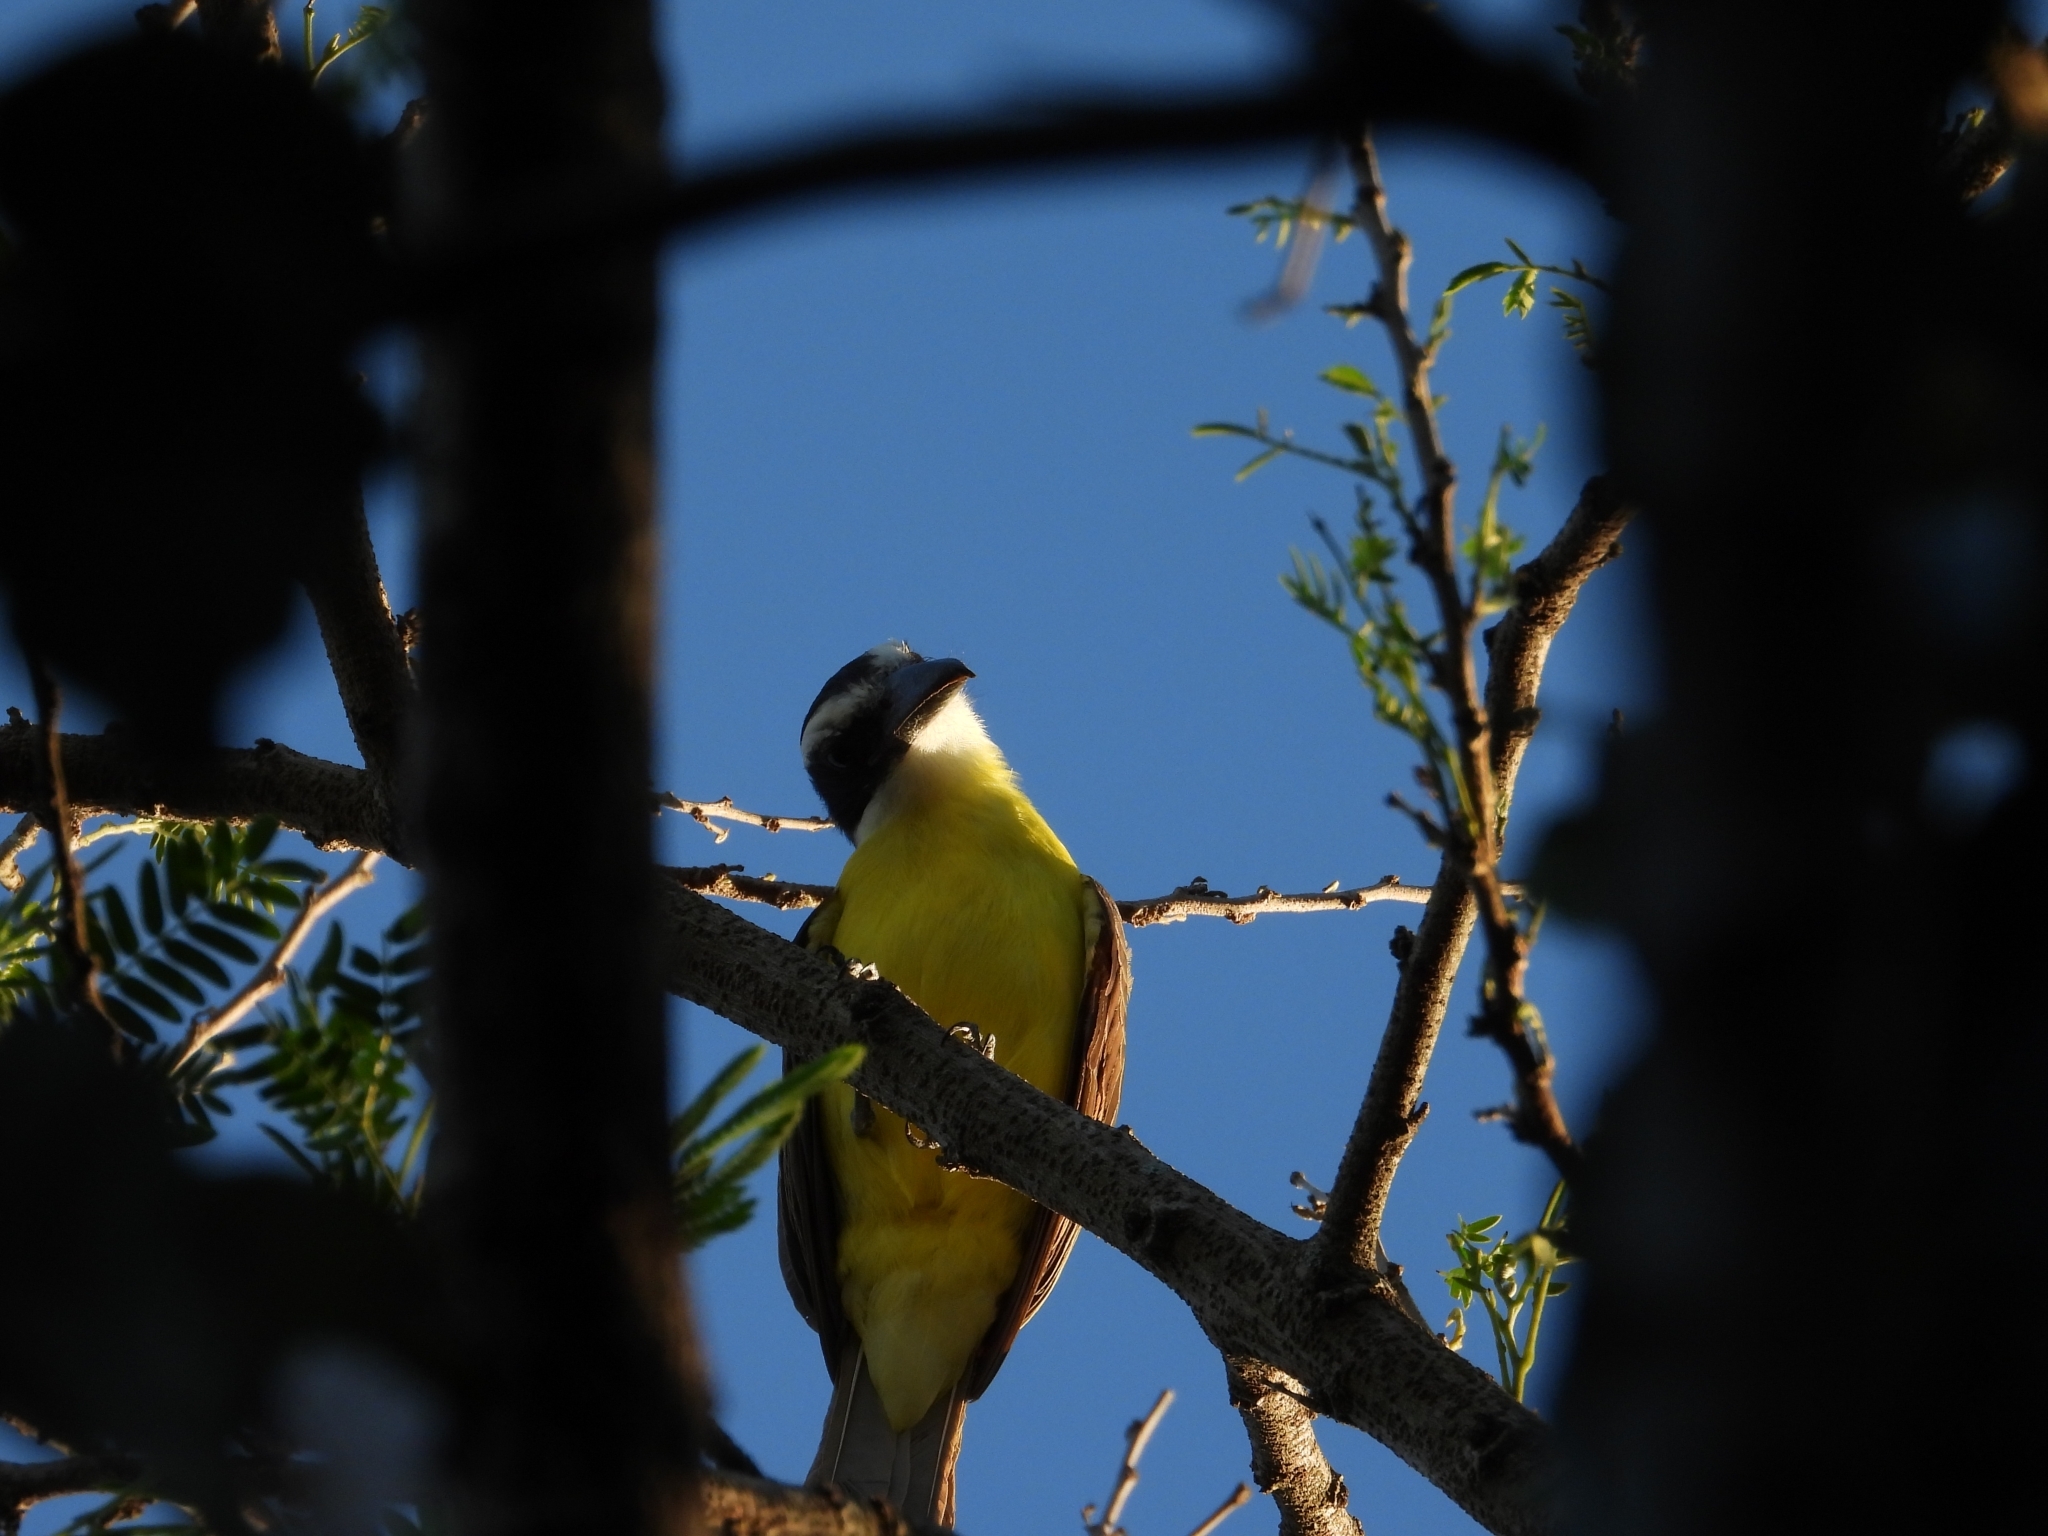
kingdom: Animalia
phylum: Chordata
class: Aves
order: Passeriformes
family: Tyrannidae
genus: Megarynchus
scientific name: Megarynchus pitangua
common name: Boat-billed flycatcher
